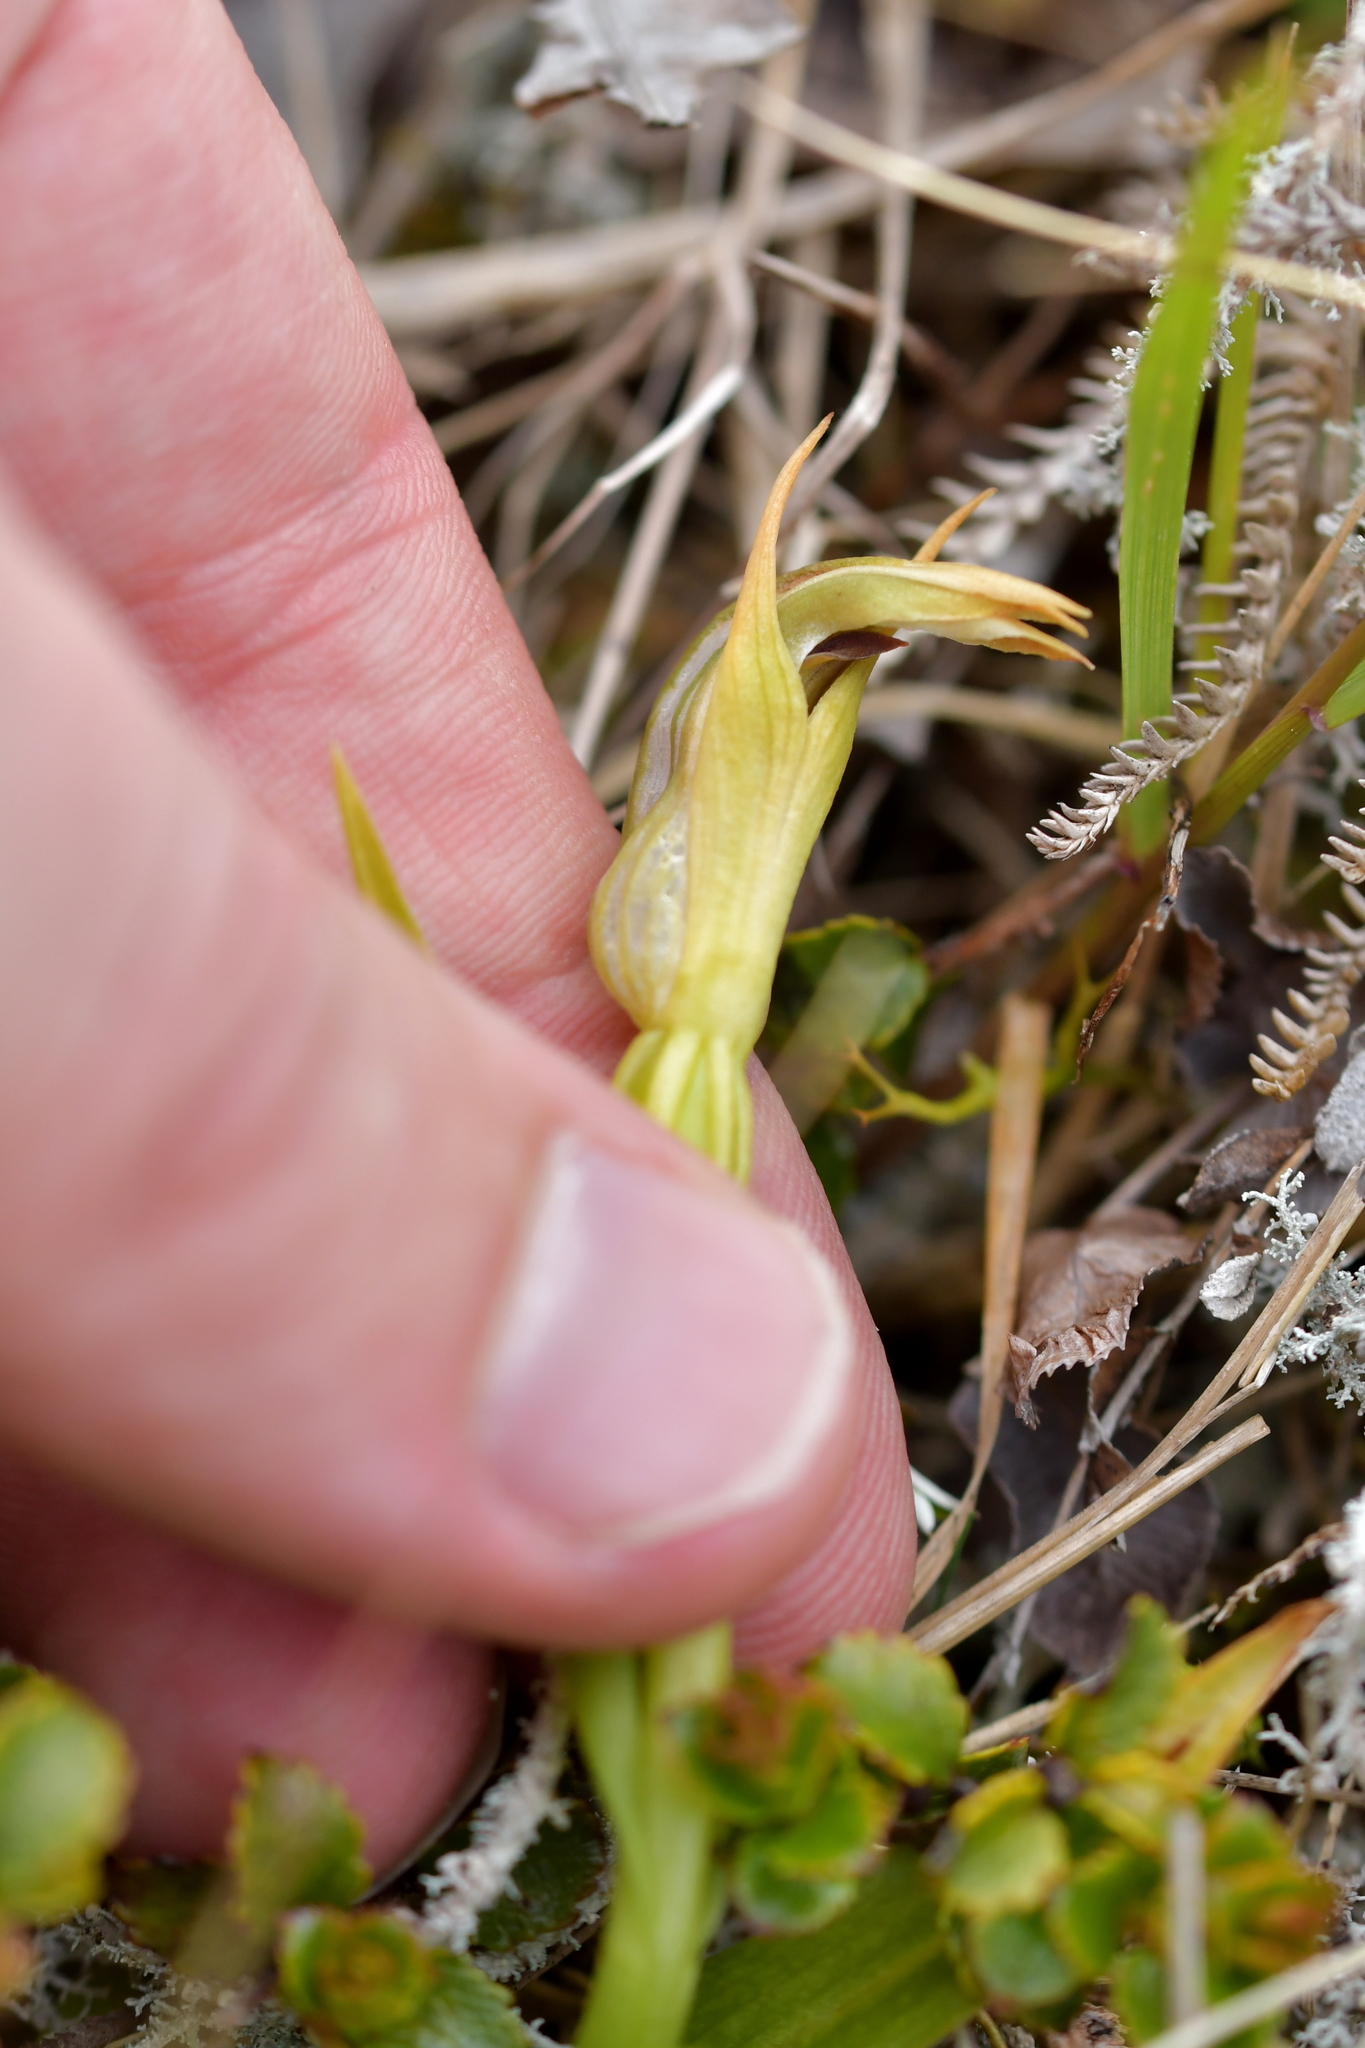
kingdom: Plantae
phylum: Tracheophyta
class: Liliopsida
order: Asparagales
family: Orchidaceae
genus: Pterostylis
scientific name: Pterostylis montana
